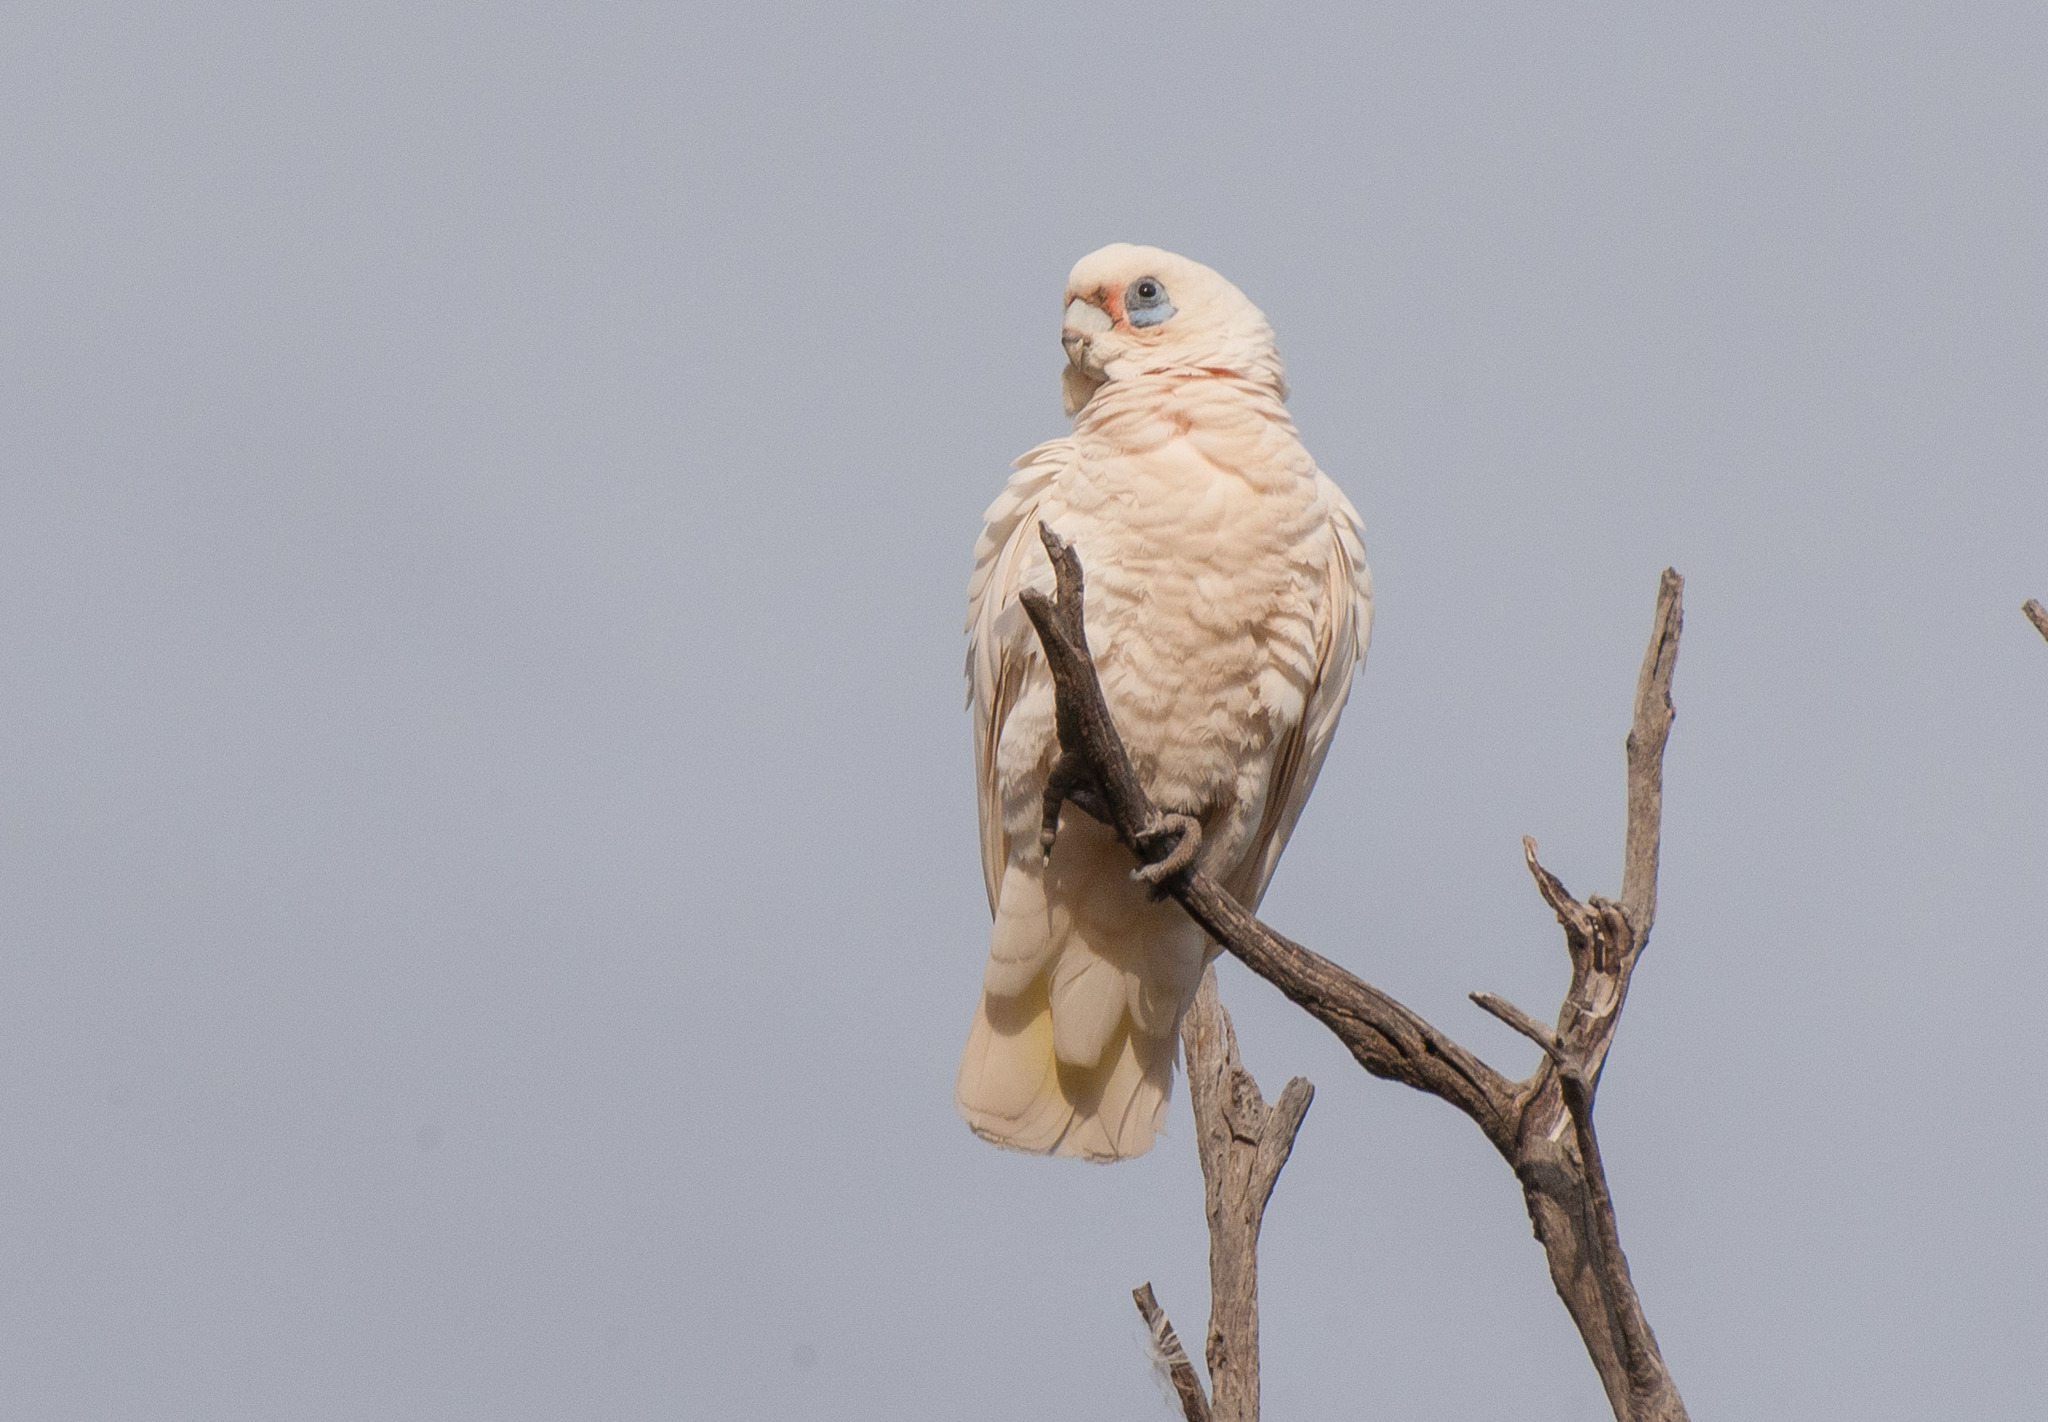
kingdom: Animalia
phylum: Chordata
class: Aves
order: Psittaciformes
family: Psittacidae
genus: Cacatua
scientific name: Cacatua sanguinea
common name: Little corella
